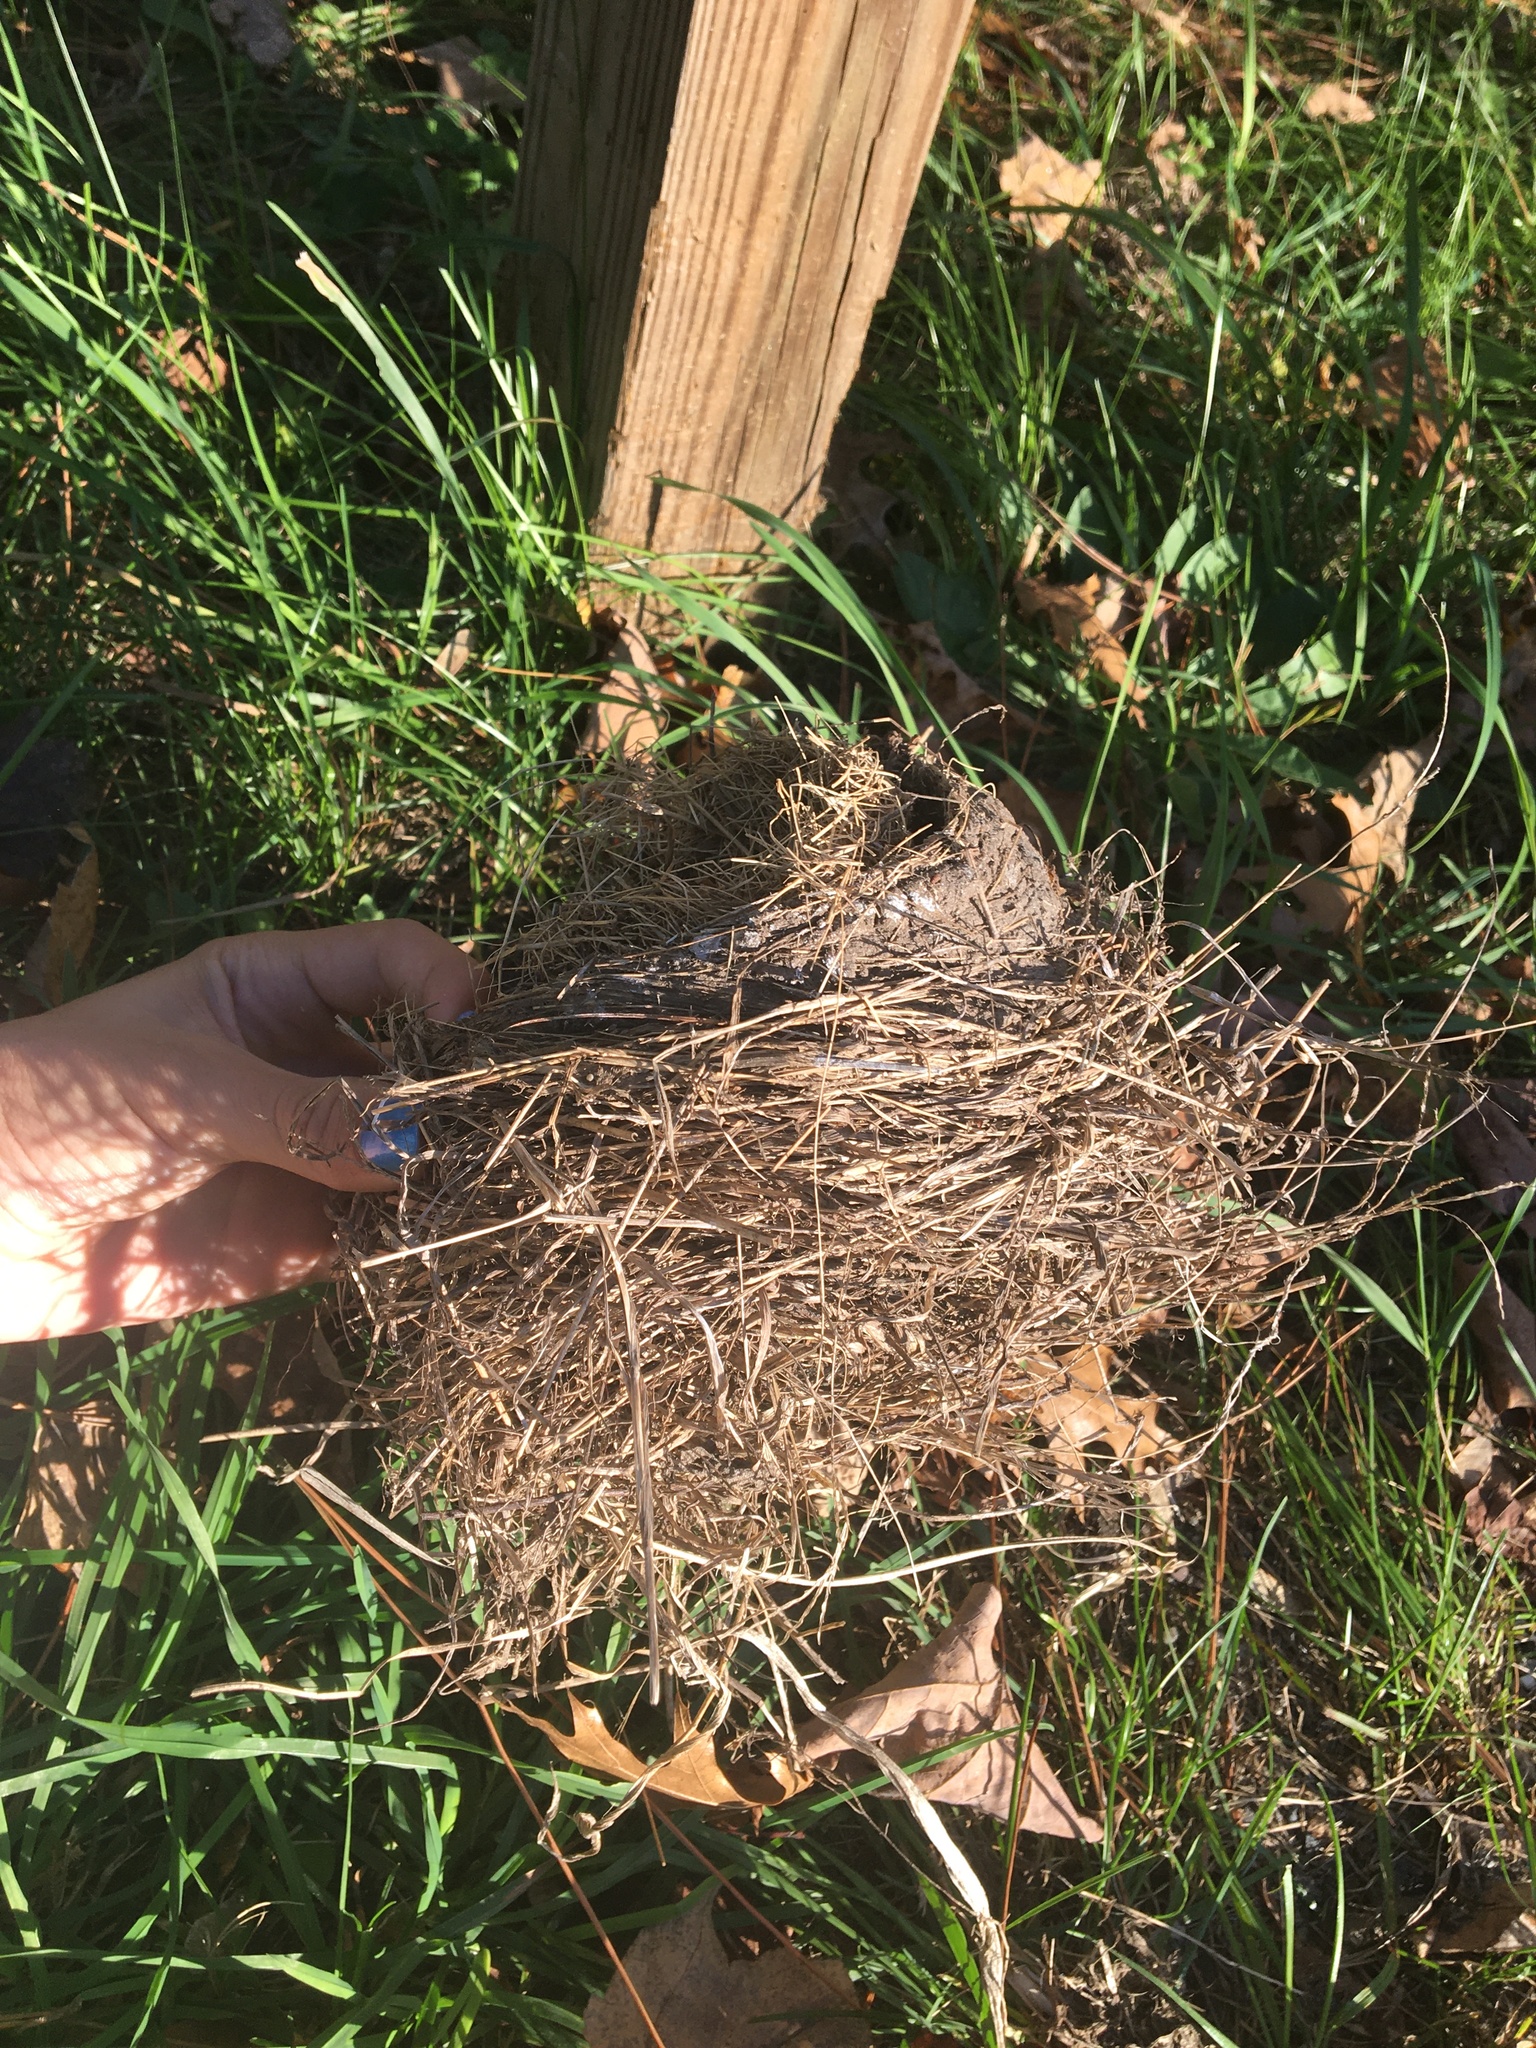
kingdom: Animalia
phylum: Chordata
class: Aves
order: Passeriformes
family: Turdidae
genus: Turdus
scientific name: Turdus migratorius
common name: American robin
